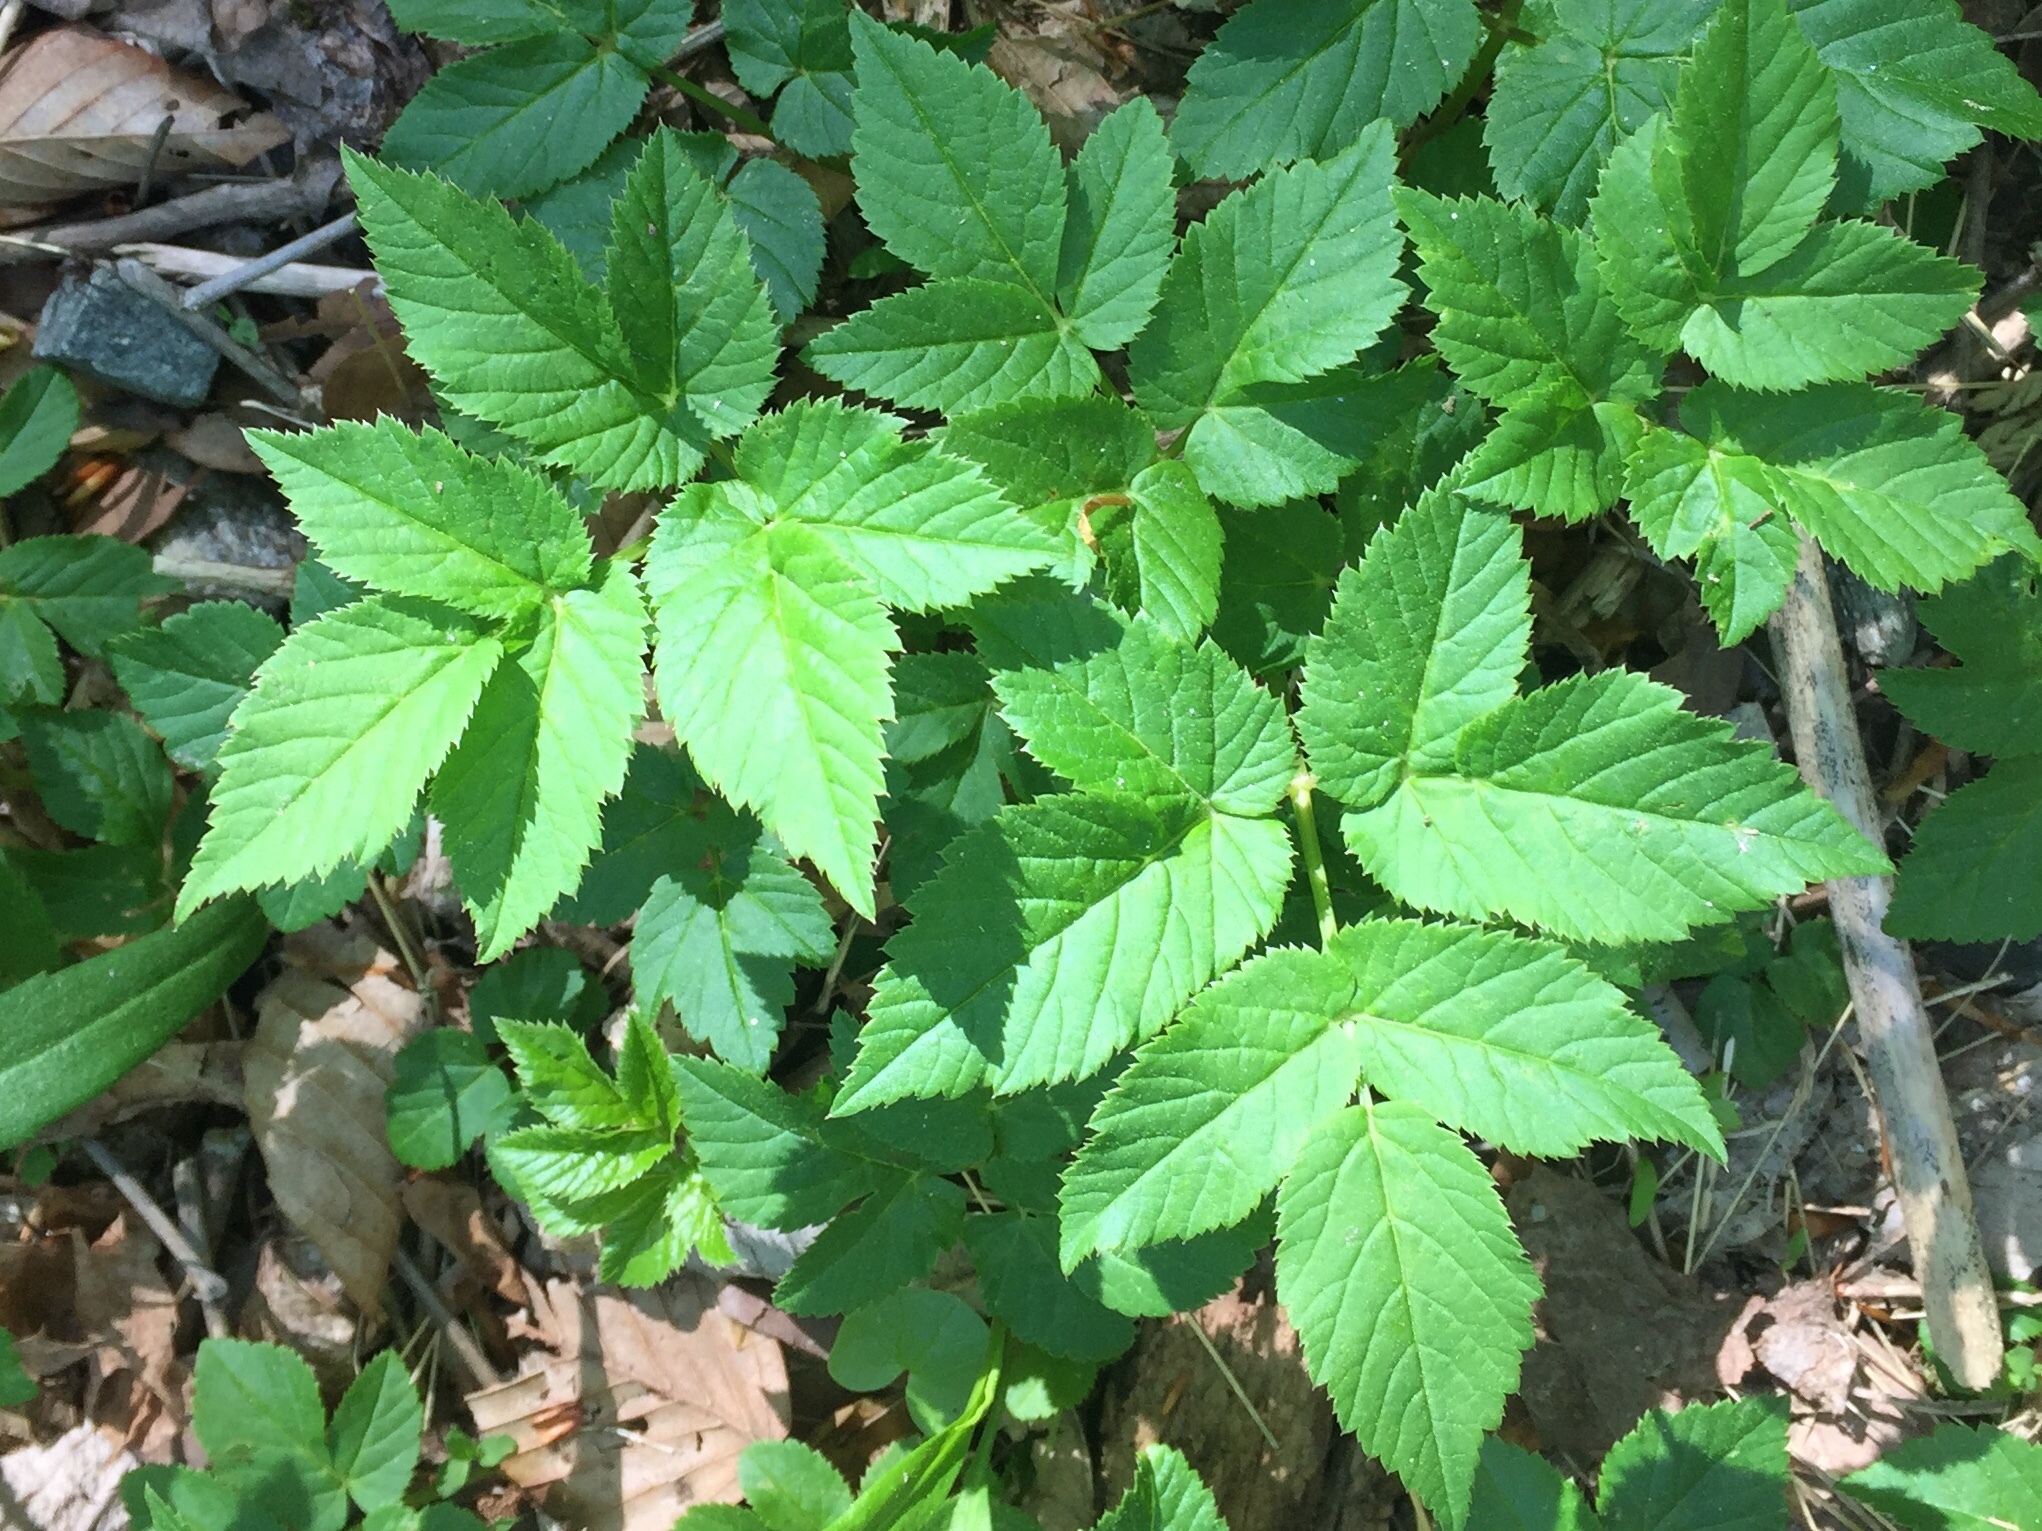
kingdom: Plantae
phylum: Tracheophyta
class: Magnoliopsida
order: Apiales
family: Apiaceae
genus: Aegopodium
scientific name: Aegopodium podagraria
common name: Ground-elder
